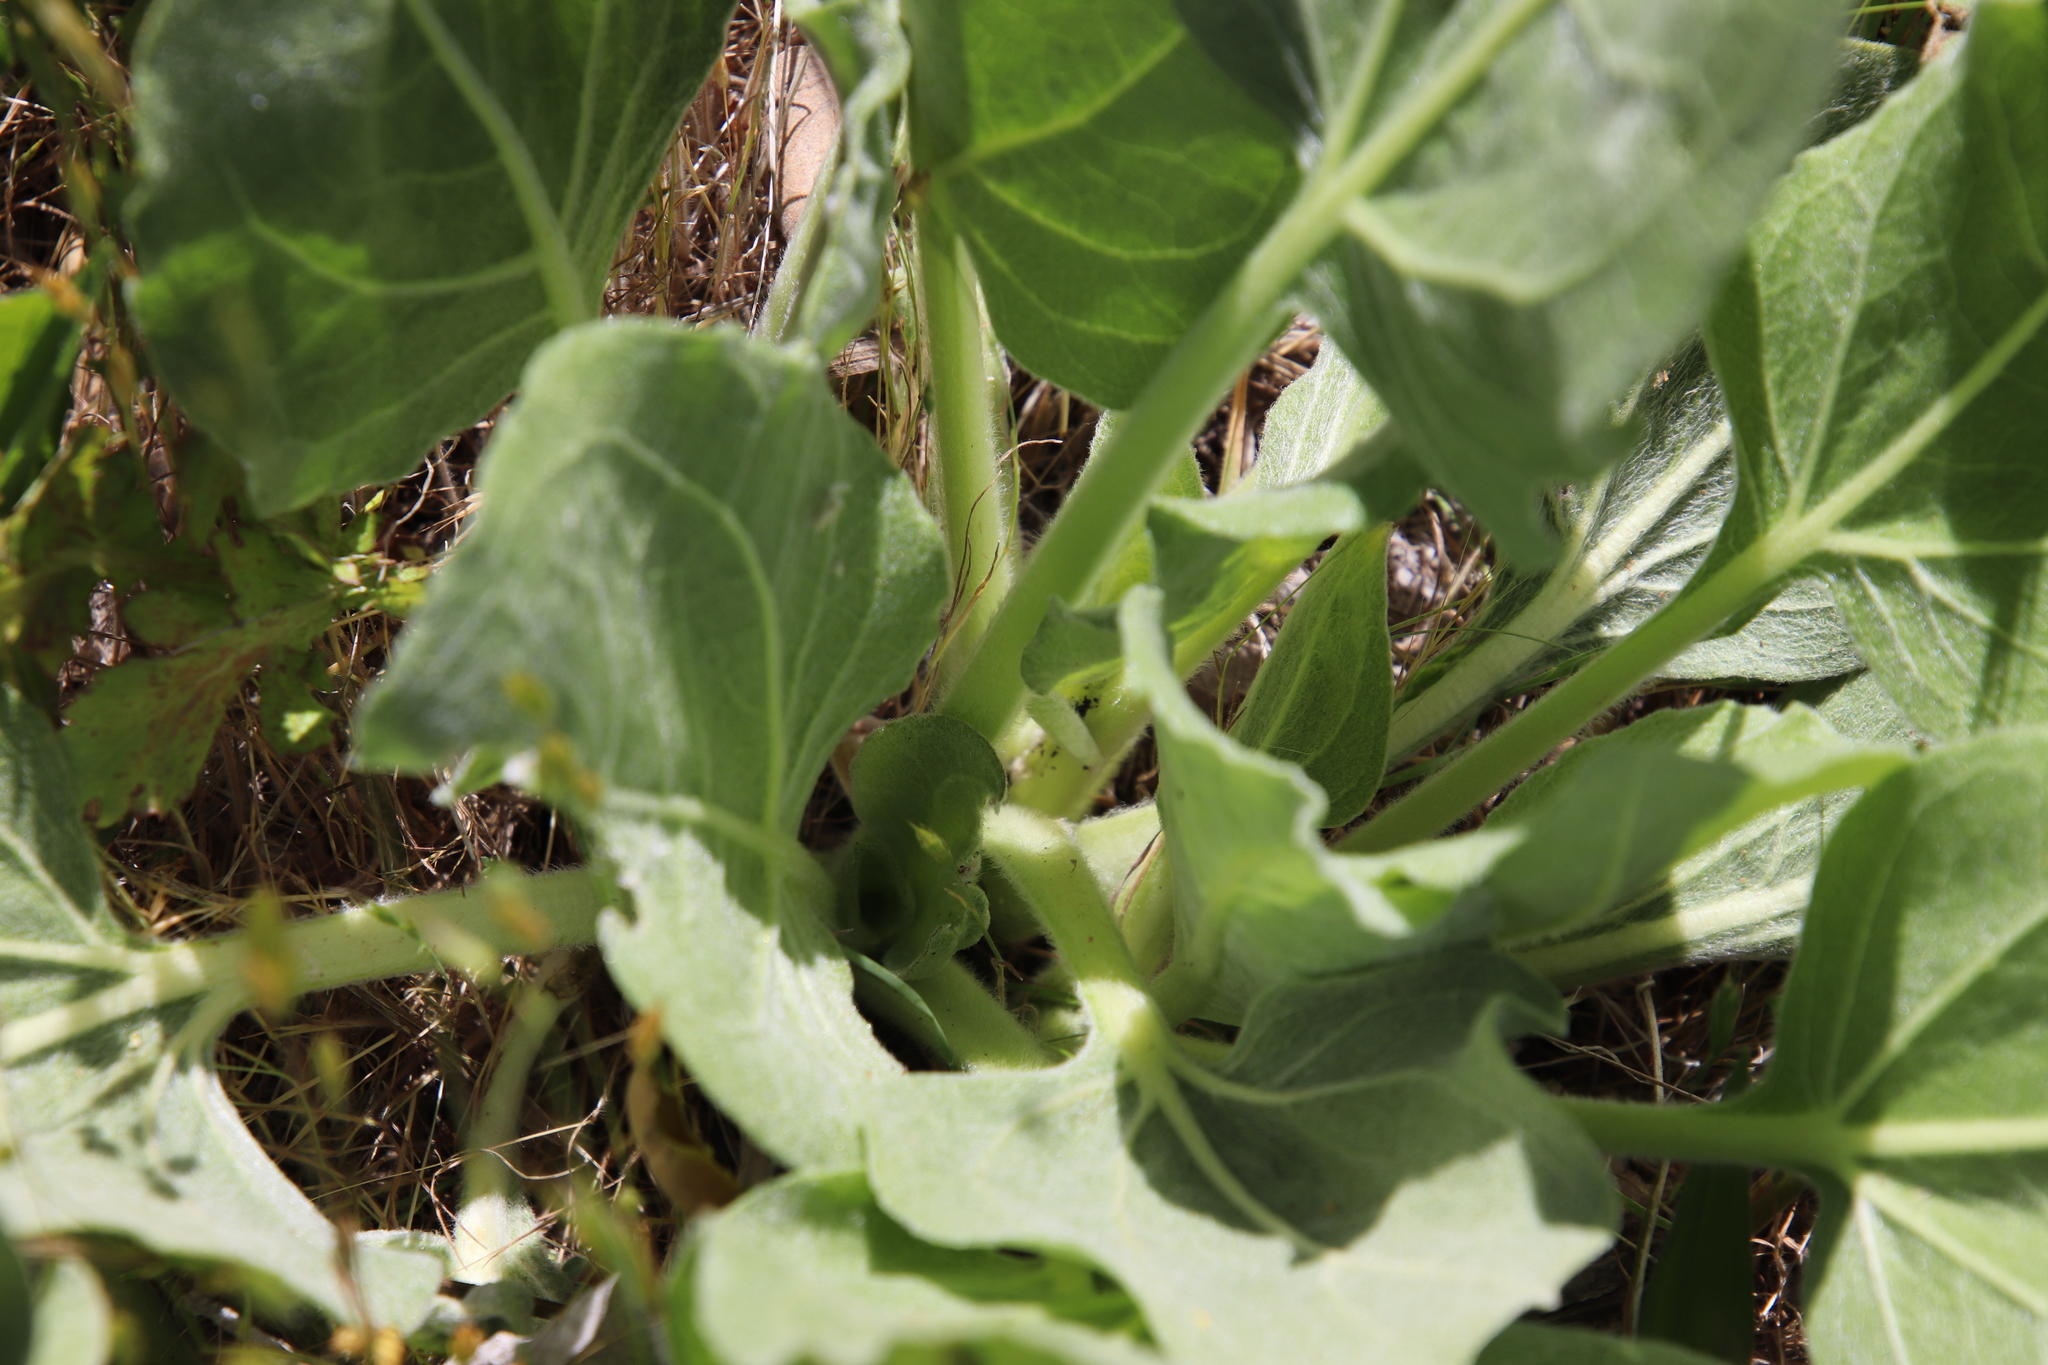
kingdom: Plantae
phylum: Tracheophyta
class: Magnoliopsida
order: Asterales
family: Asteraceae
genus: Agnorhiza
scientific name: Agnorhiza ovata
